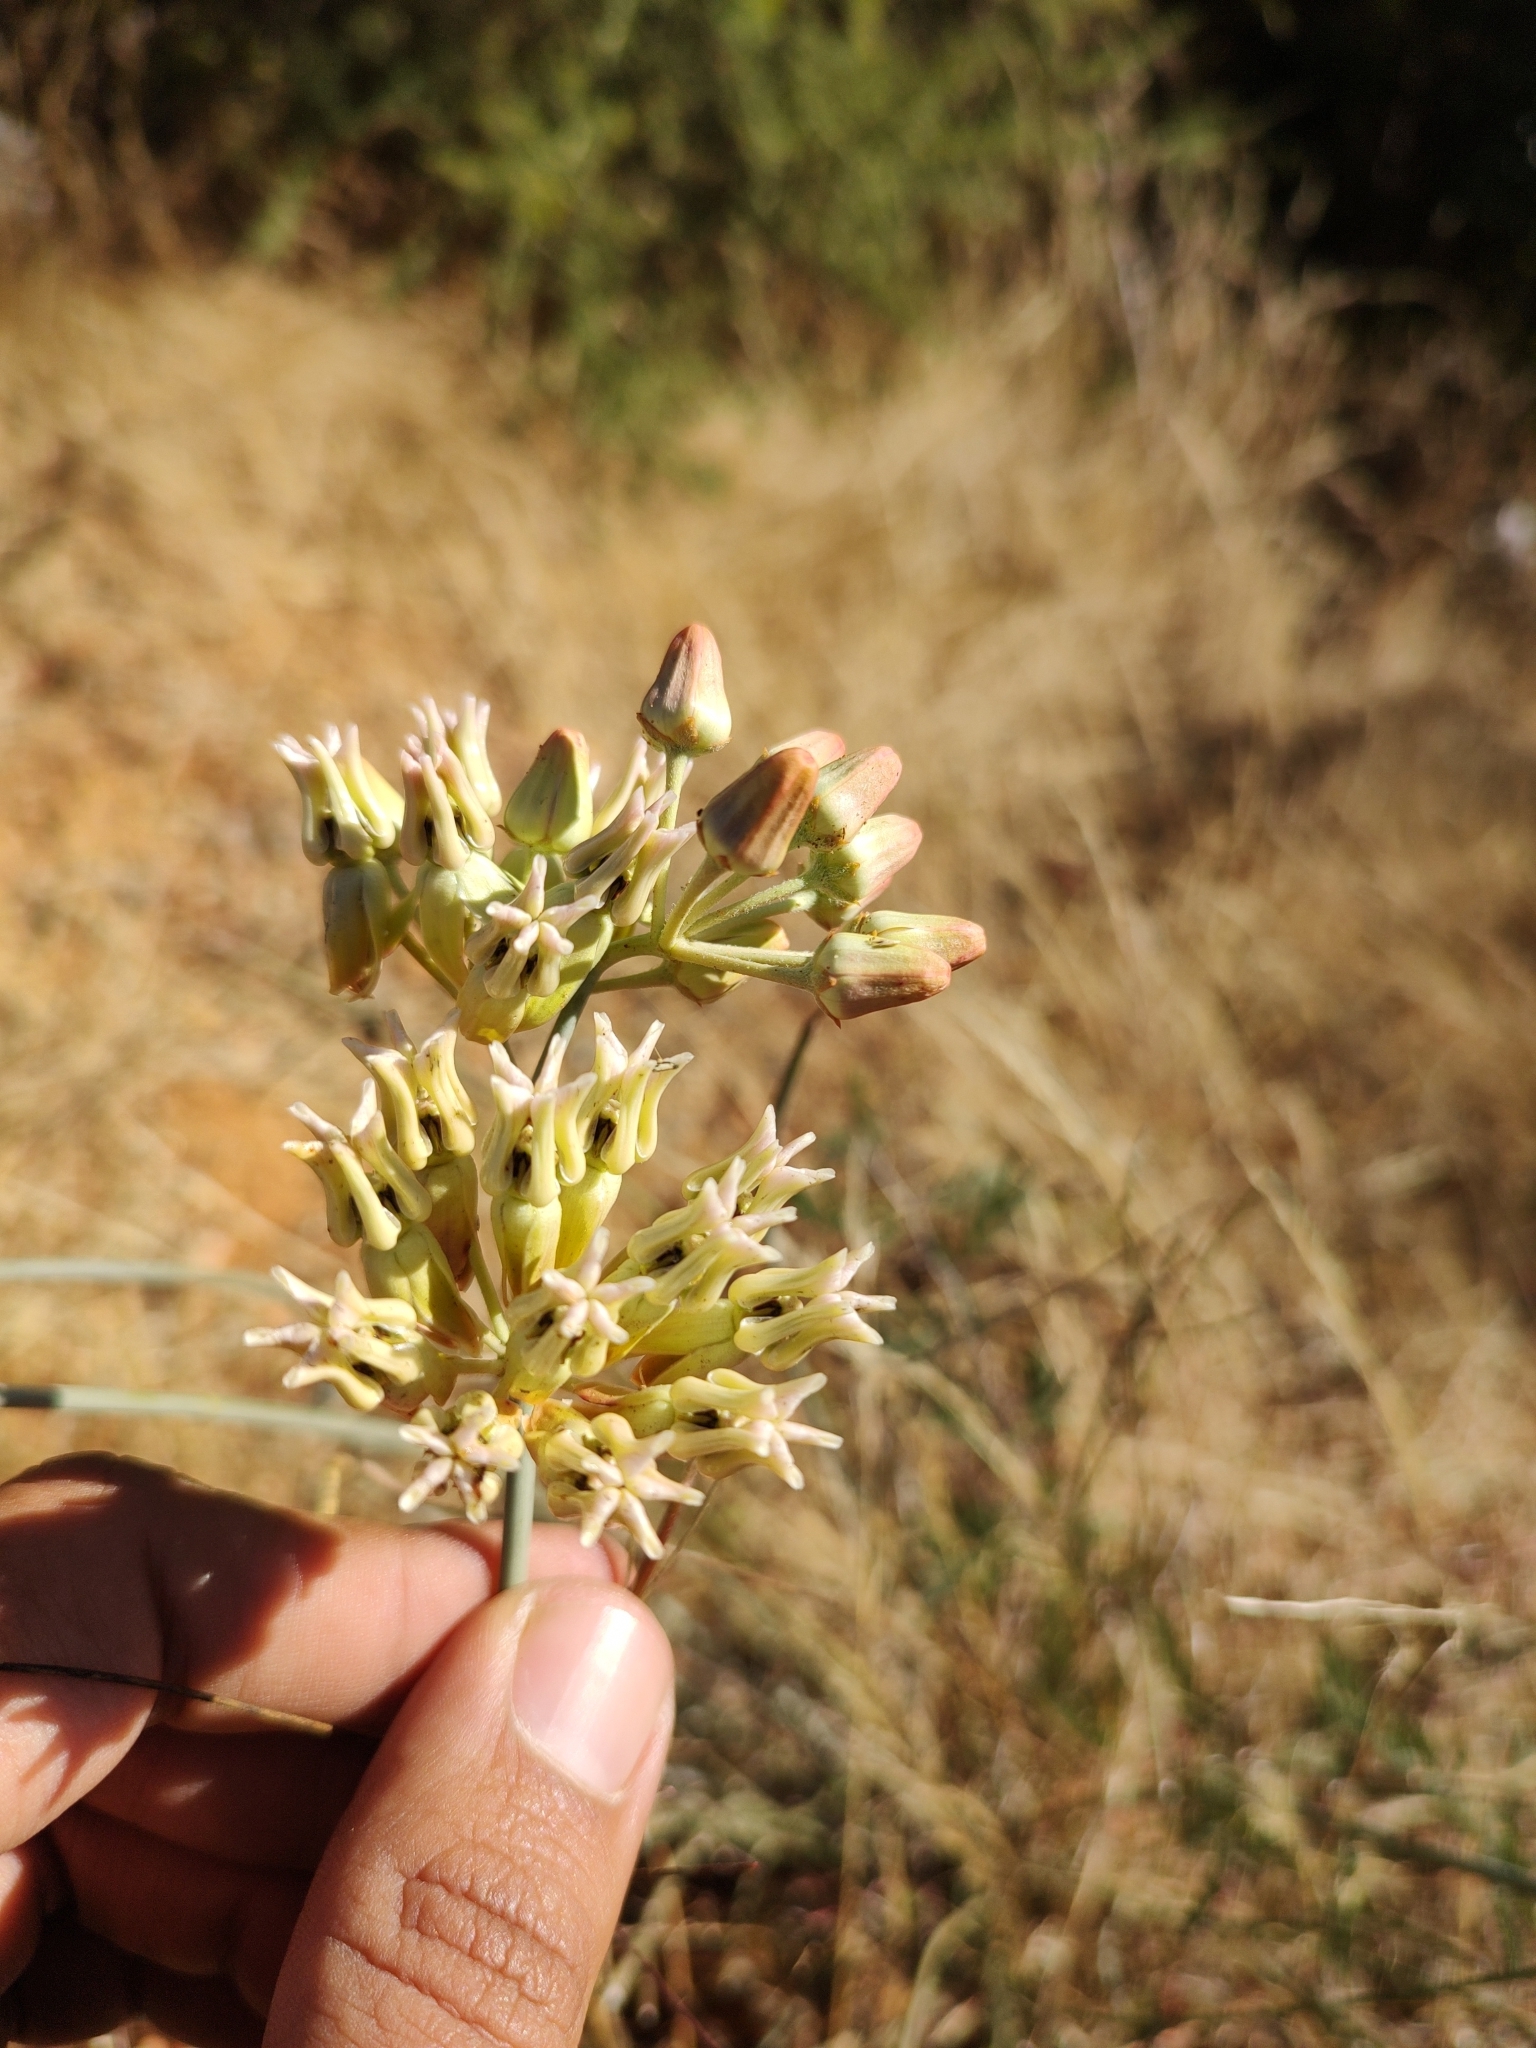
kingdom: Plantae
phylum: Tracheophyta
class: Magnoliopsida
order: Gentianales
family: Apocynaceae
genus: Asclepias
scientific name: Asclepias subulata
